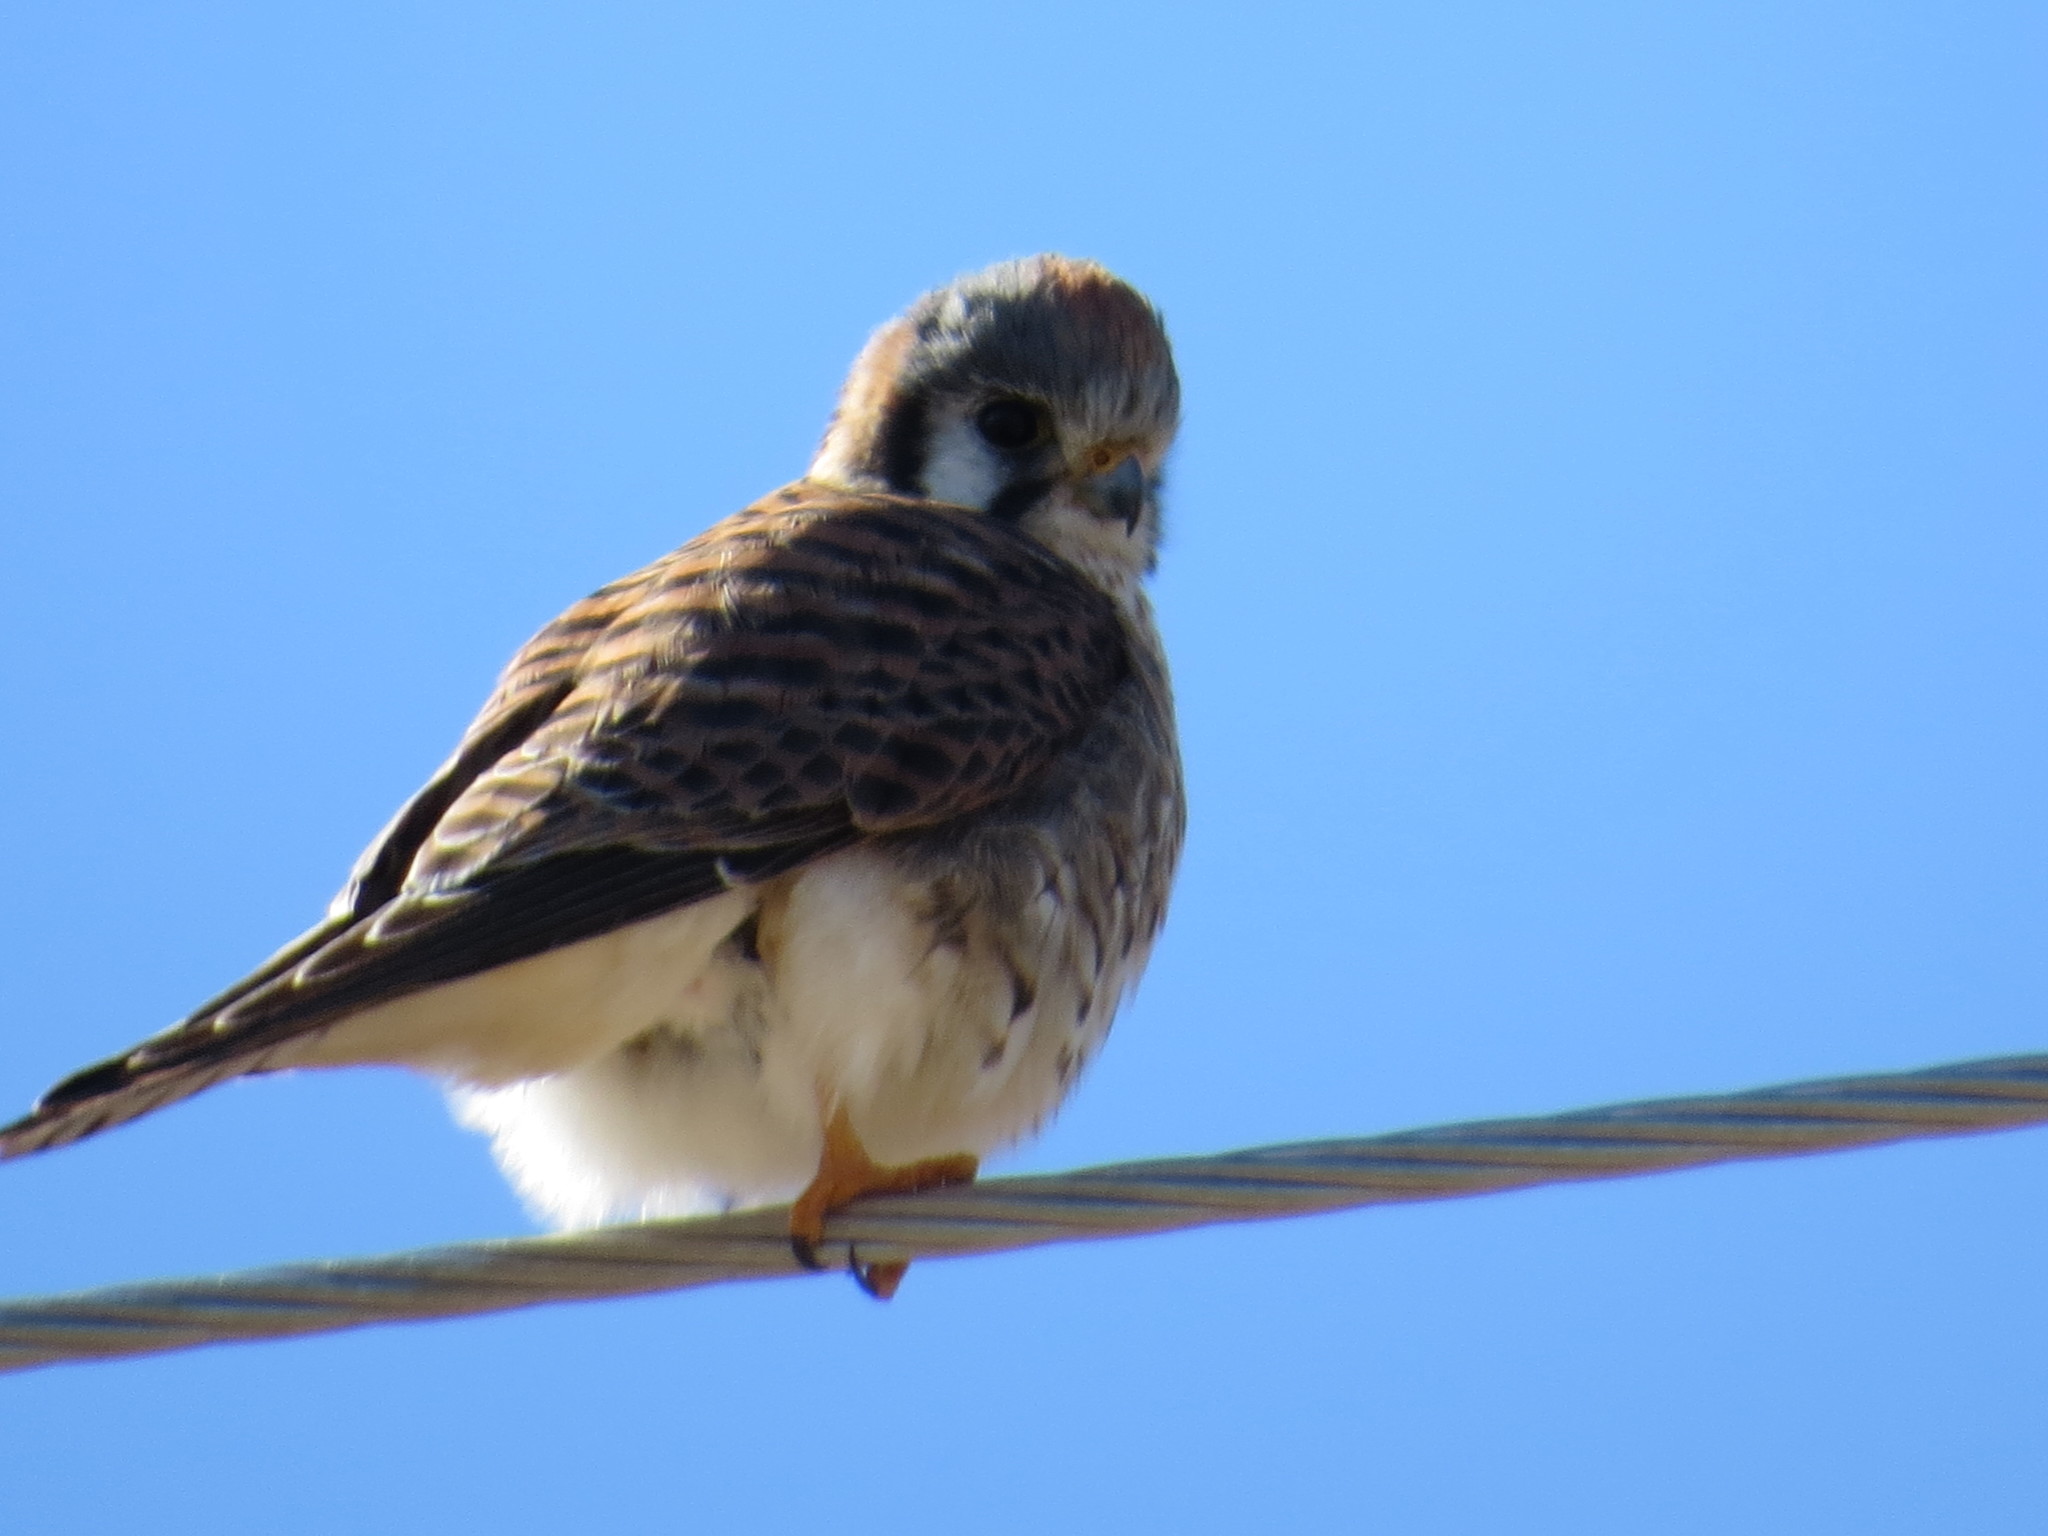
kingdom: Animalia
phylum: Chordata
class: Aves
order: Falconiformes
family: Falconidae
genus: Falco
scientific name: Falco sparverius
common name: American kestrel
